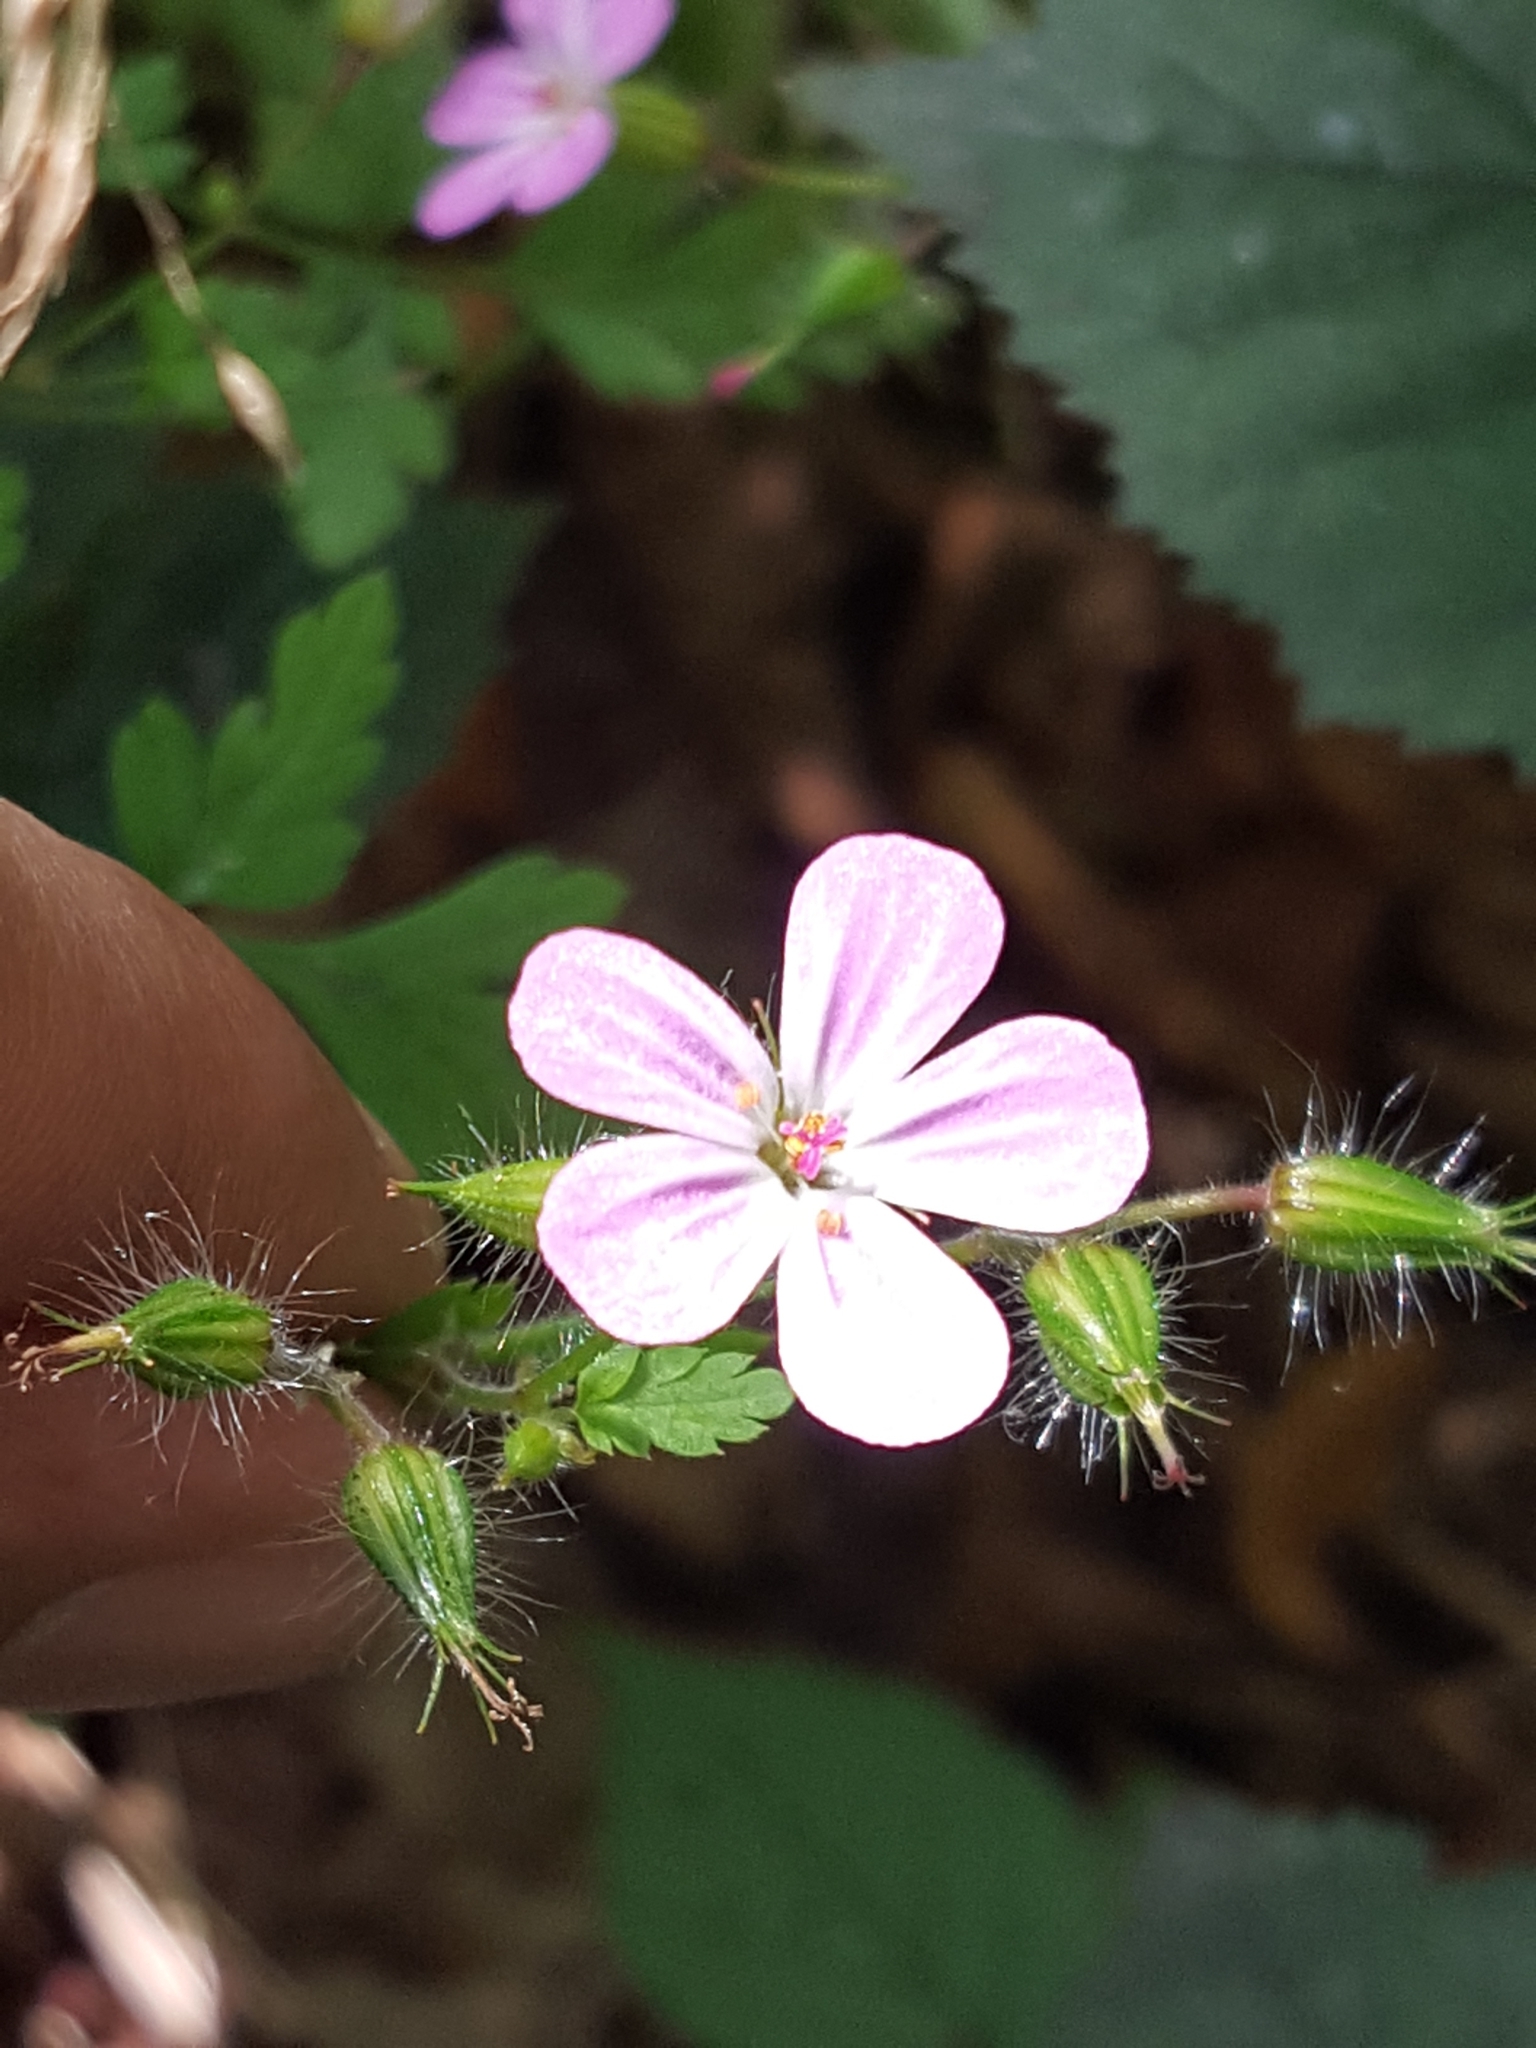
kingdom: Plantae
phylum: Tracheophyta
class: Magnoliopsida
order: Geraniales
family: Geraniaceae
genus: Geranium
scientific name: Geranium robertianum
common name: Herb-robert
